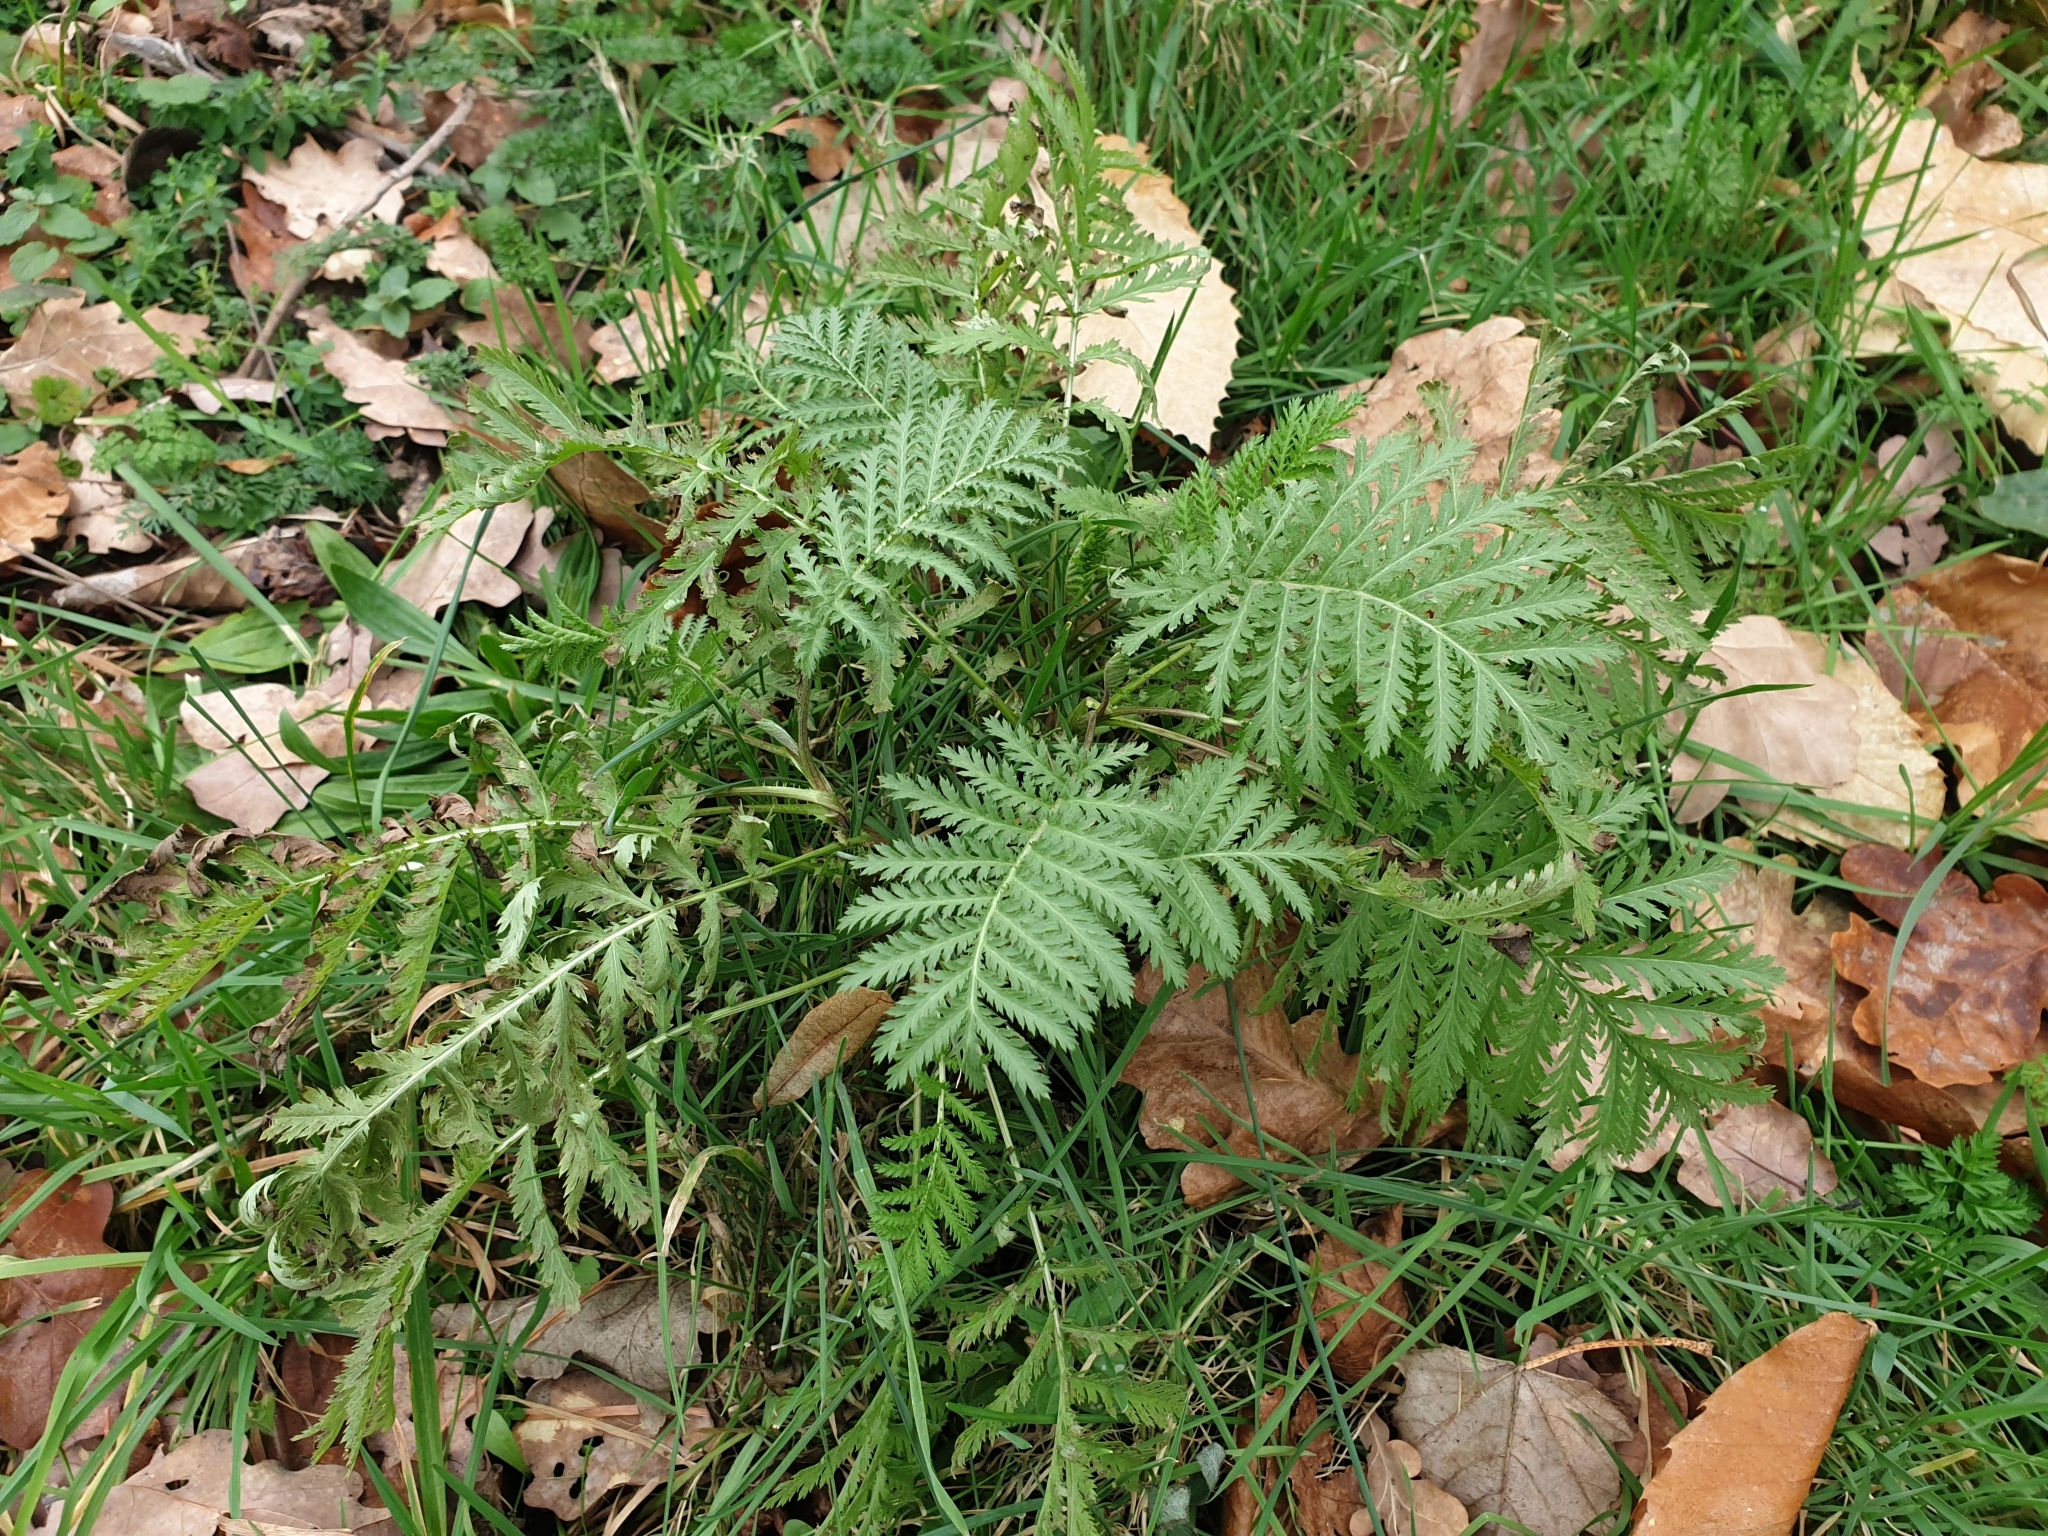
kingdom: Plantae
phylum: Tracheophyta
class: Magnoliopsida
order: Asterales
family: Asteraceae
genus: Tanacetum
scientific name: Tanacetum vulgare
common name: Common tansy
